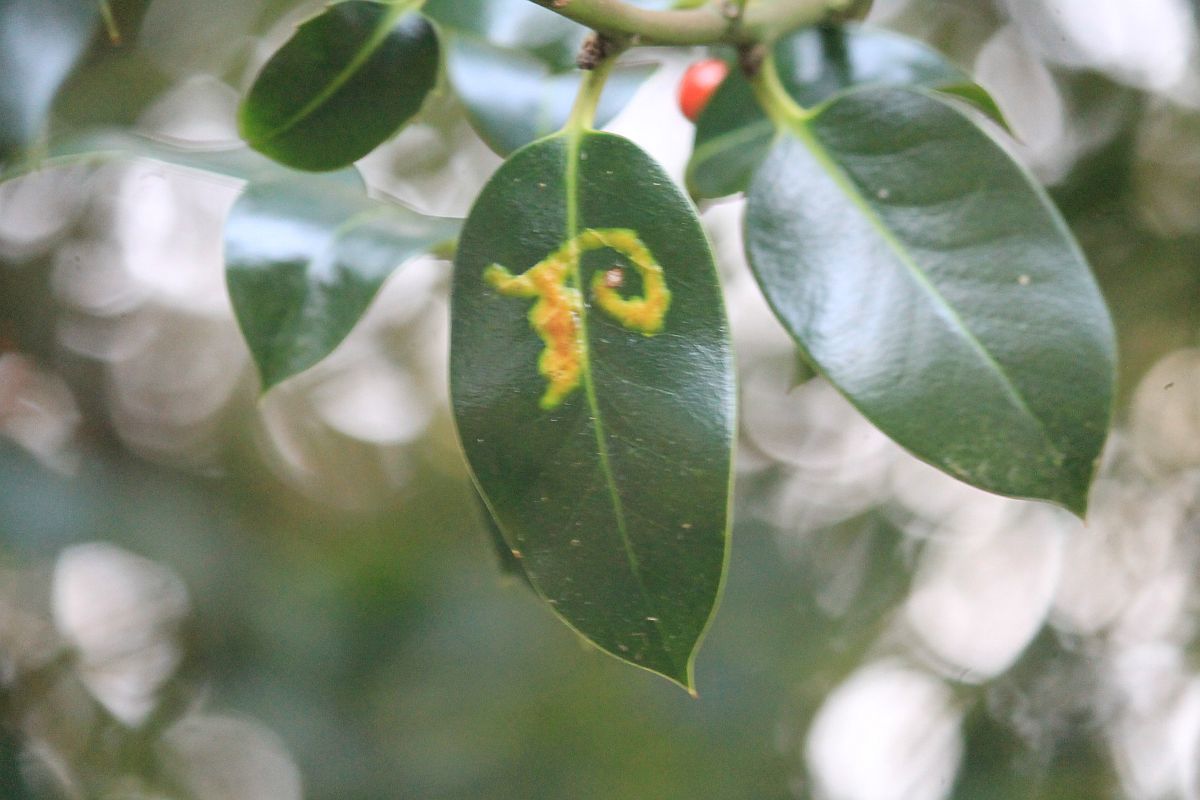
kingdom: Animalia
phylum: Arthropoda
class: Insecta
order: Diptera
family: Agromyzidae
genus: Phytomyza
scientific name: Phytomyza ilicis
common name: Holly leafminer
